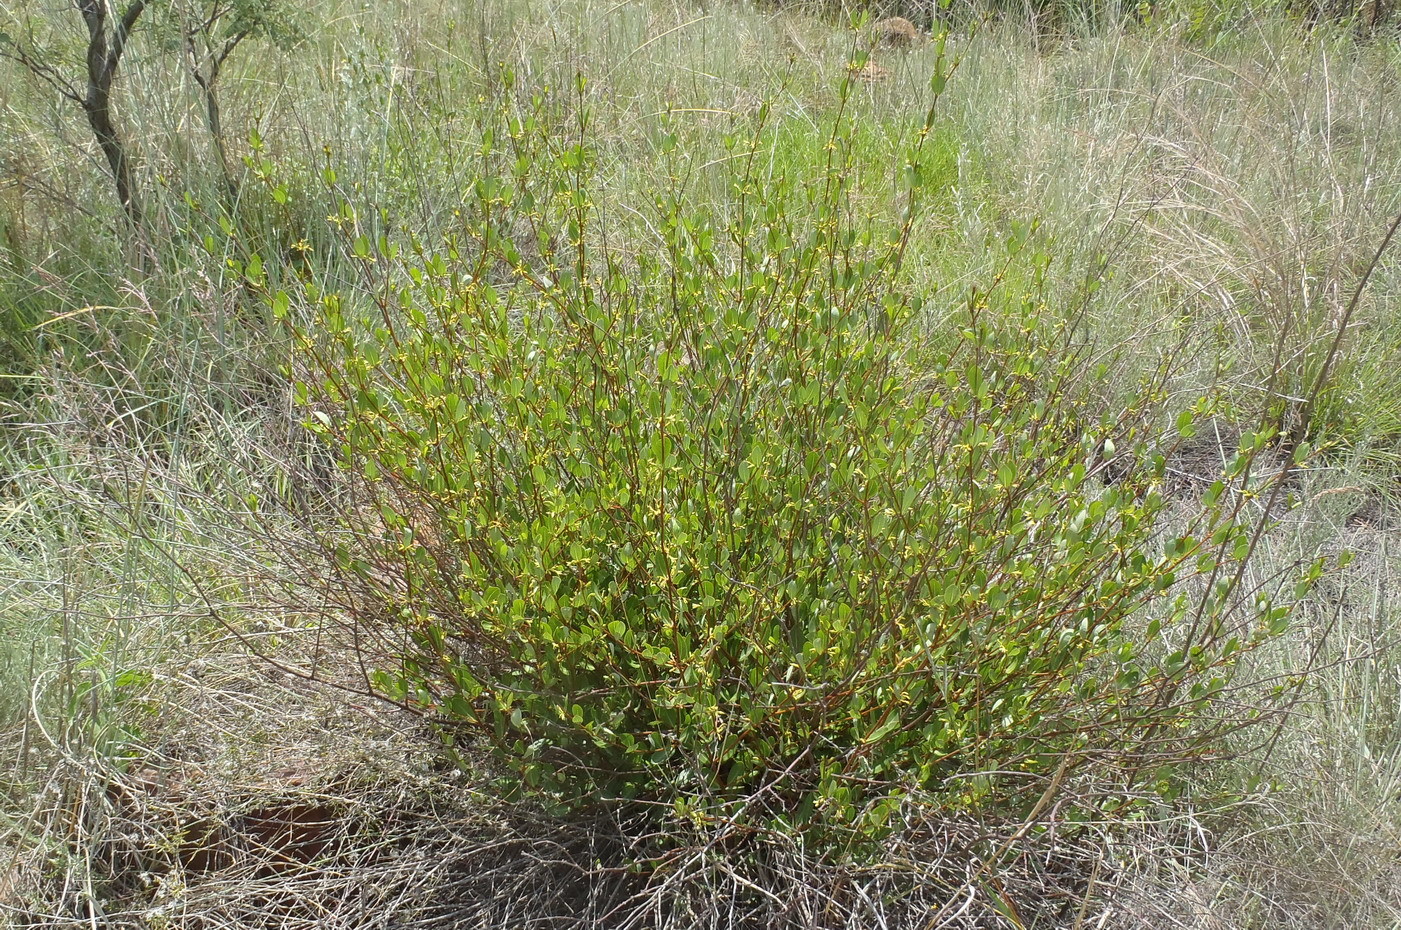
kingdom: Plantae
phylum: Tracheophyta
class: Magnoliopsida
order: Gentianales
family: Apocynaceae
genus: Cryptolepis
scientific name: Cryptolepis oblongifolia
